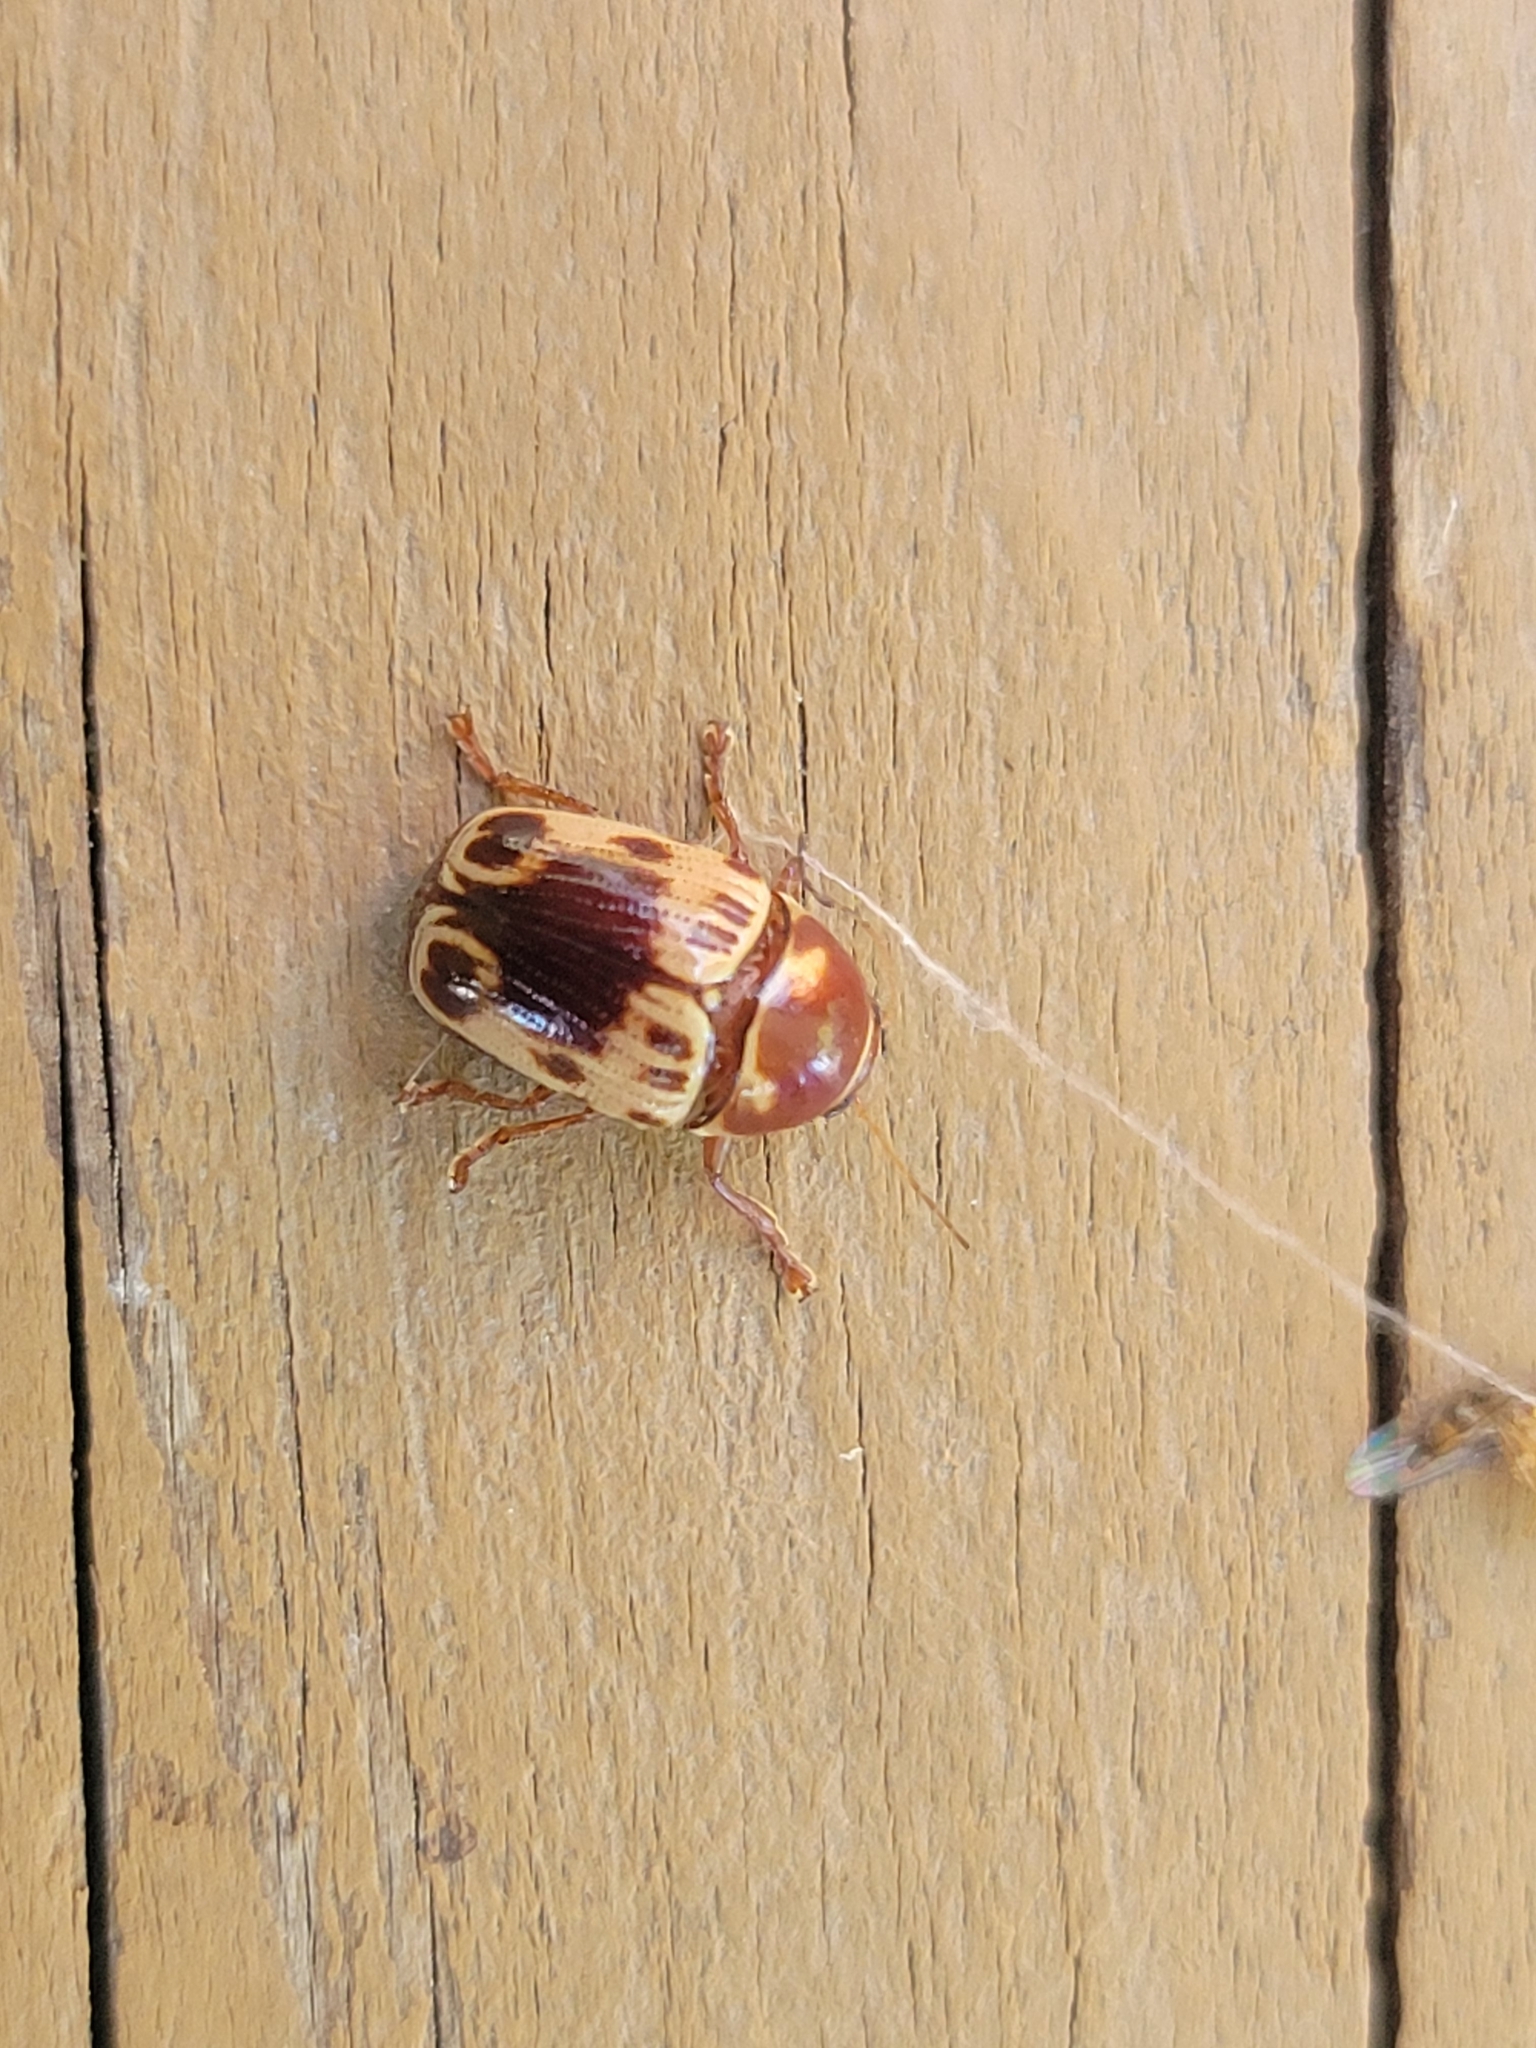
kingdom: Animalia
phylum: Arthropoda
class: Insecta
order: Coleoptera
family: Chrysomelidae
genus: Cryptocephalus
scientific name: Cryptocephalus mutabilis
